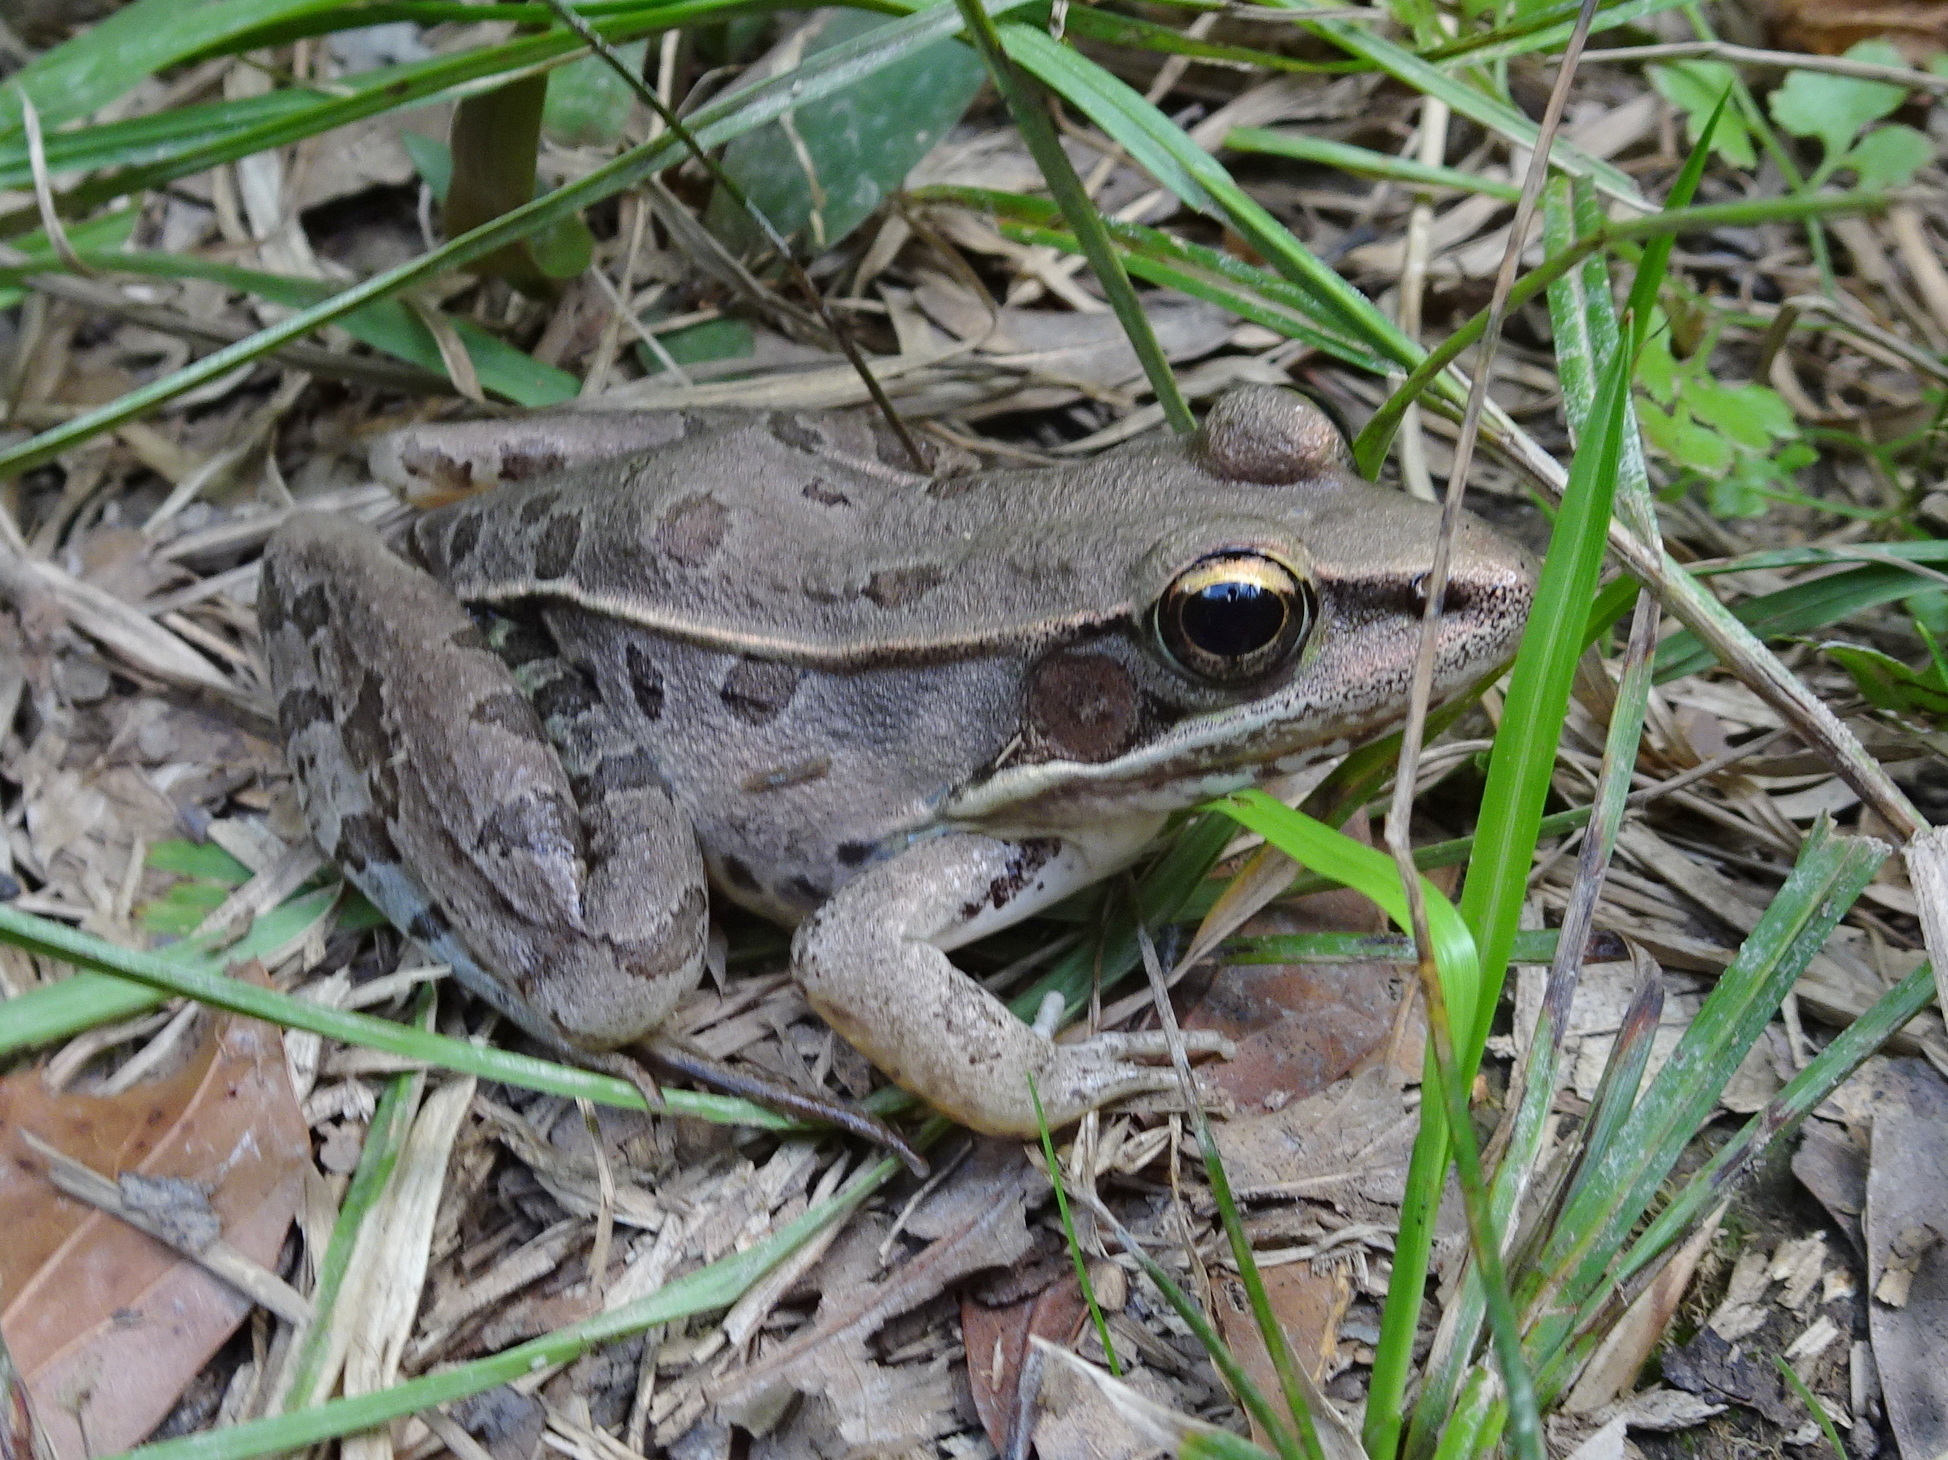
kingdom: Animalia
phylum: Chordata
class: Amphibia
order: Anura
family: Ranidae
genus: Lithobates
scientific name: Lithobates sphenocephalus
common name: Southern leopard frog
